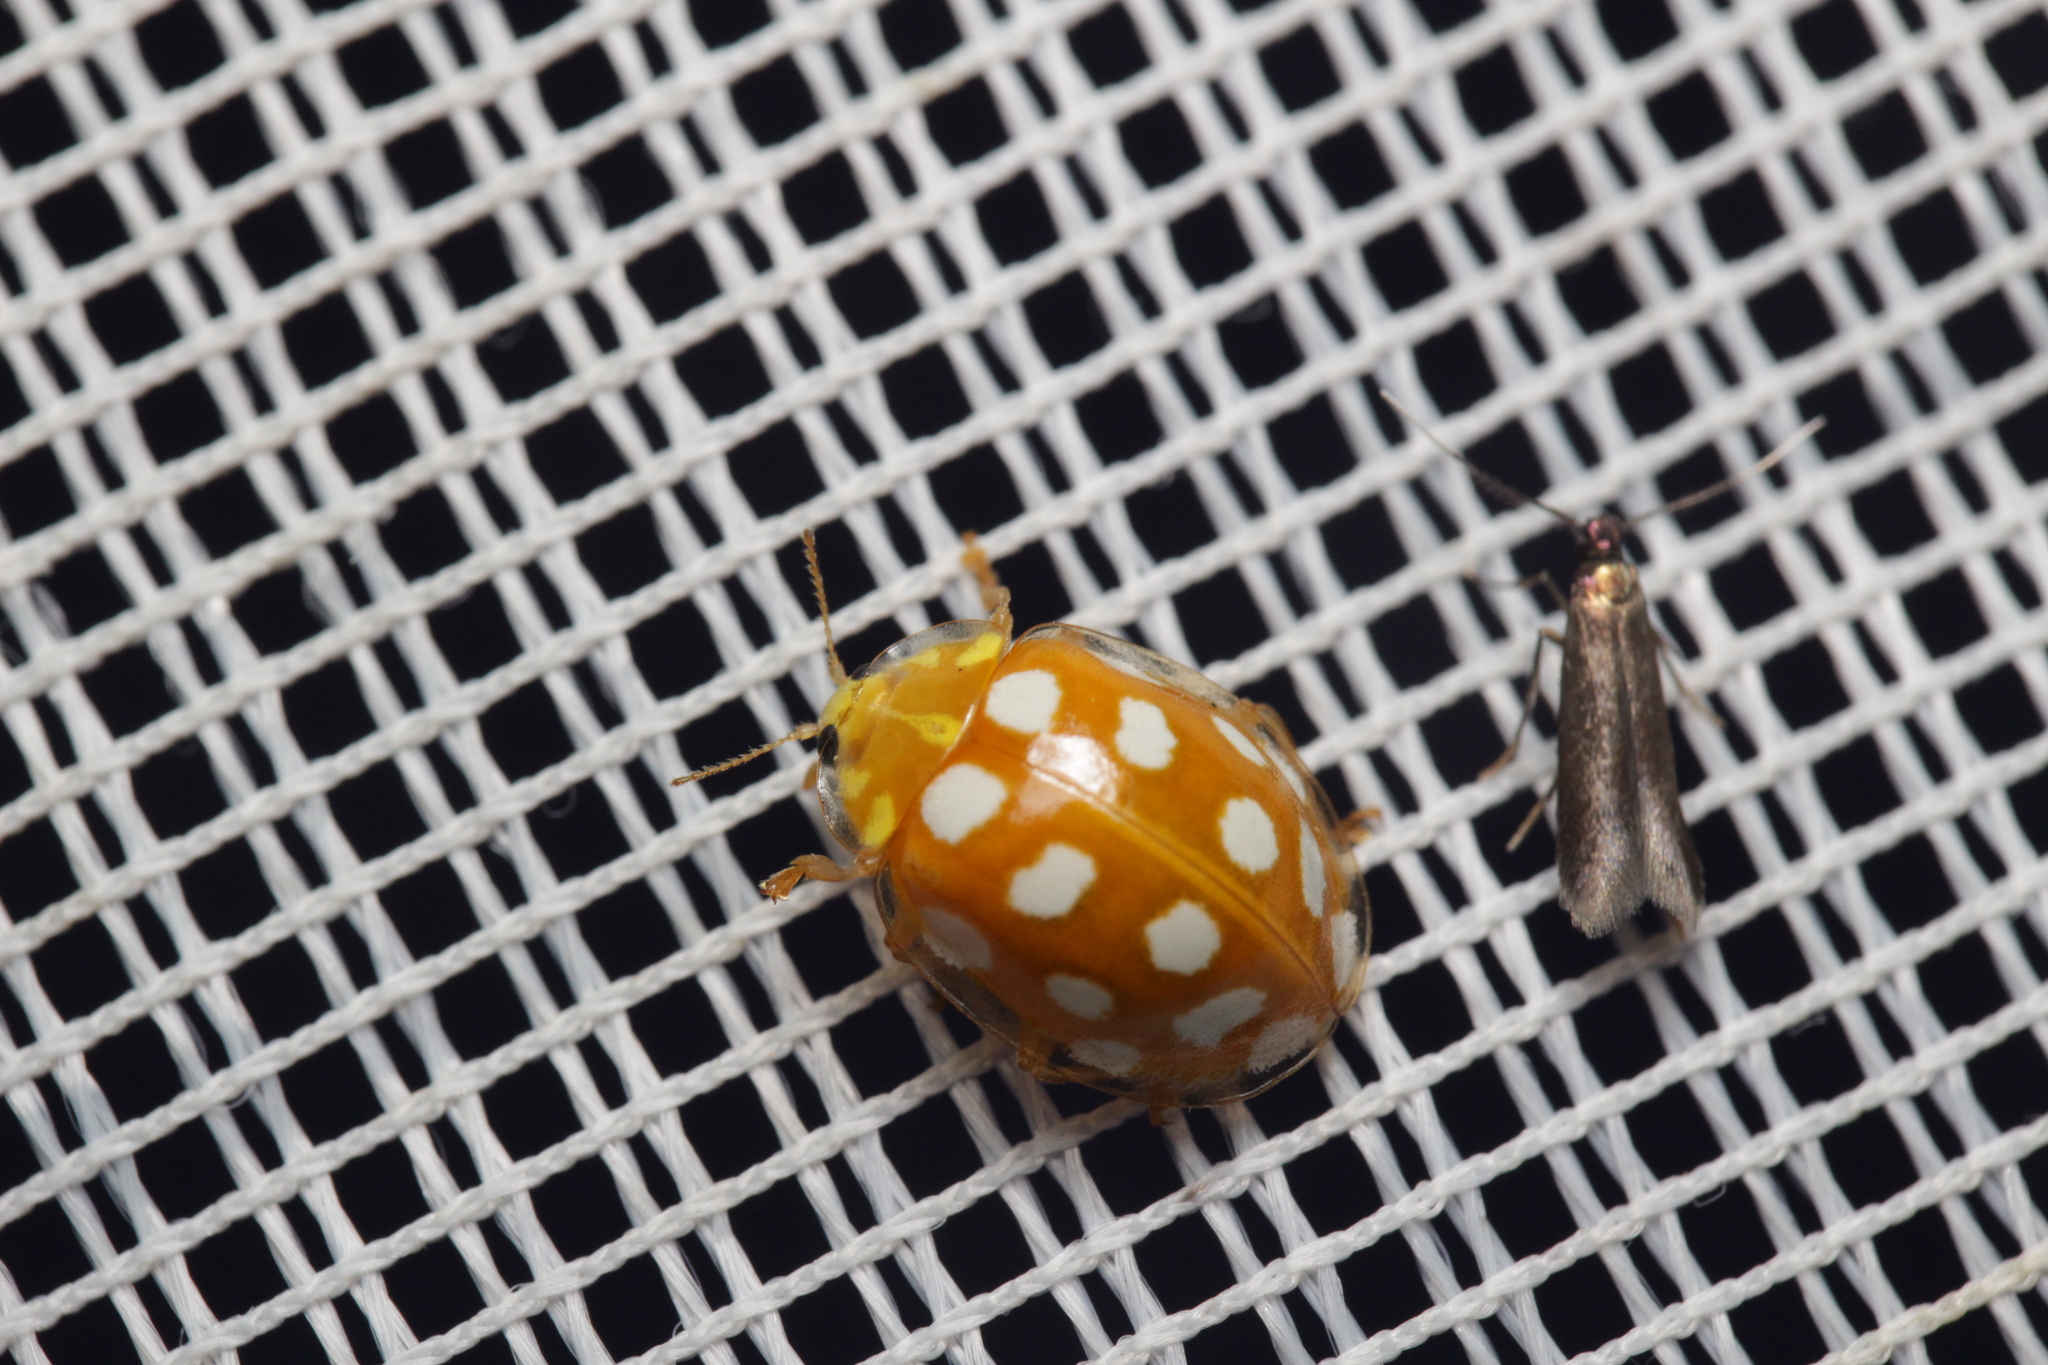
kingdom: Animalia
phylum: Arthropoda
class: Insecta
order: Coleoptera
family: Coccinellidae
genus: Halyzia
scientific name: Halyzia sedecimguttata
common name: Orange ladybird
